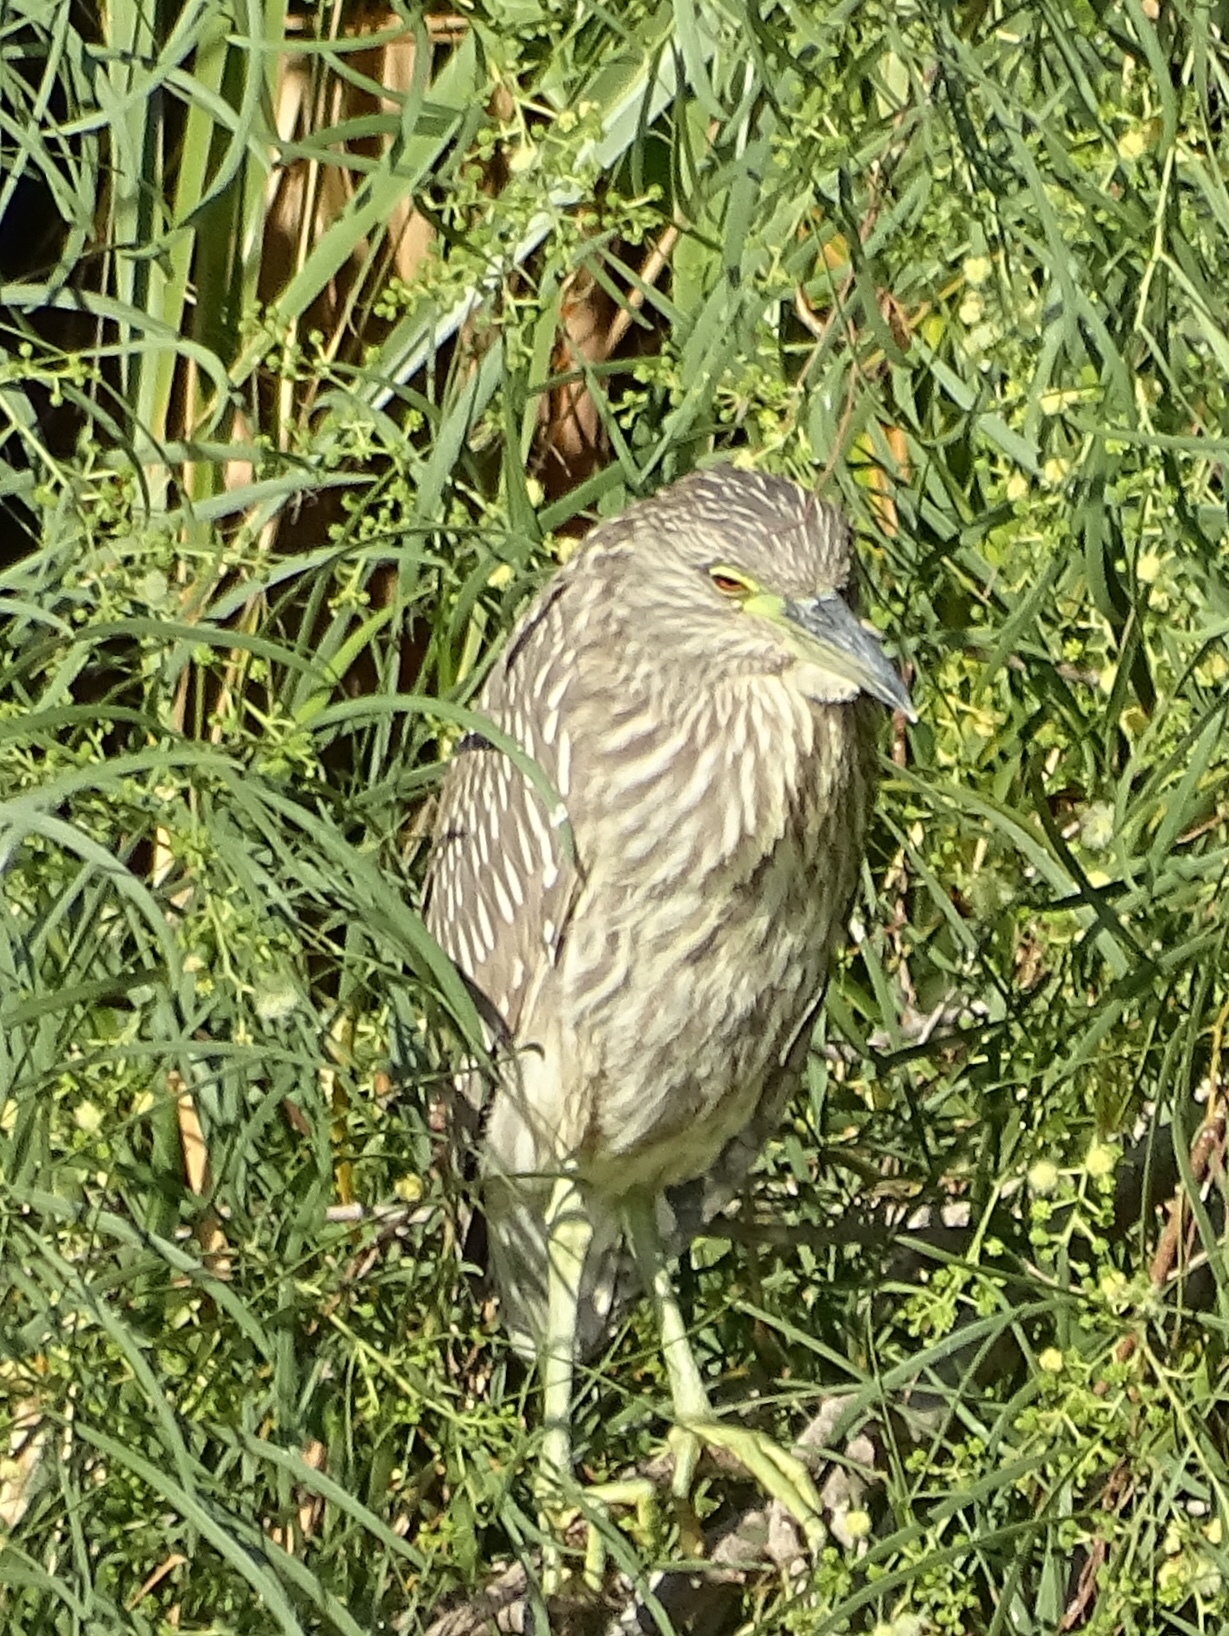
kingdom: Animalia
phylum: Chordata
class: Aves
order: Pelecaniformes
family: Ardeidae
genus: Nycticorax
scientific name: Nycticorax nycticorax
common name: Black-crowned night heron
